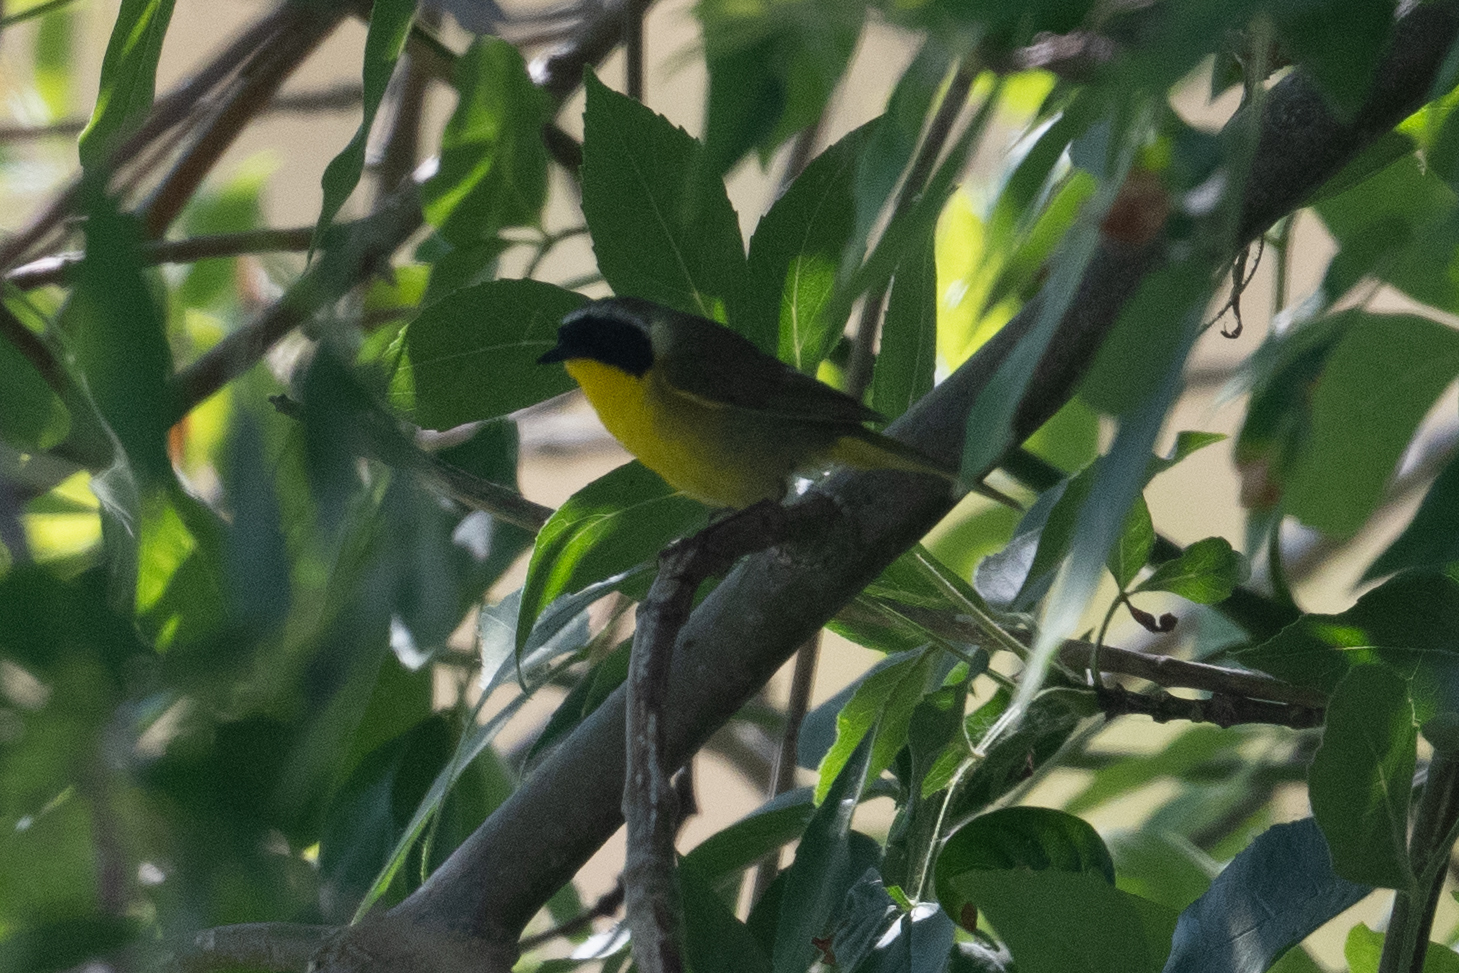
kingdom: Animalia
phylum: Chordata
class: Aves
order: Passeriformes
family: Parulidae
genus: Geothlypis
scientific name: Geothlypis trichas
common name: Common yellowthroat
